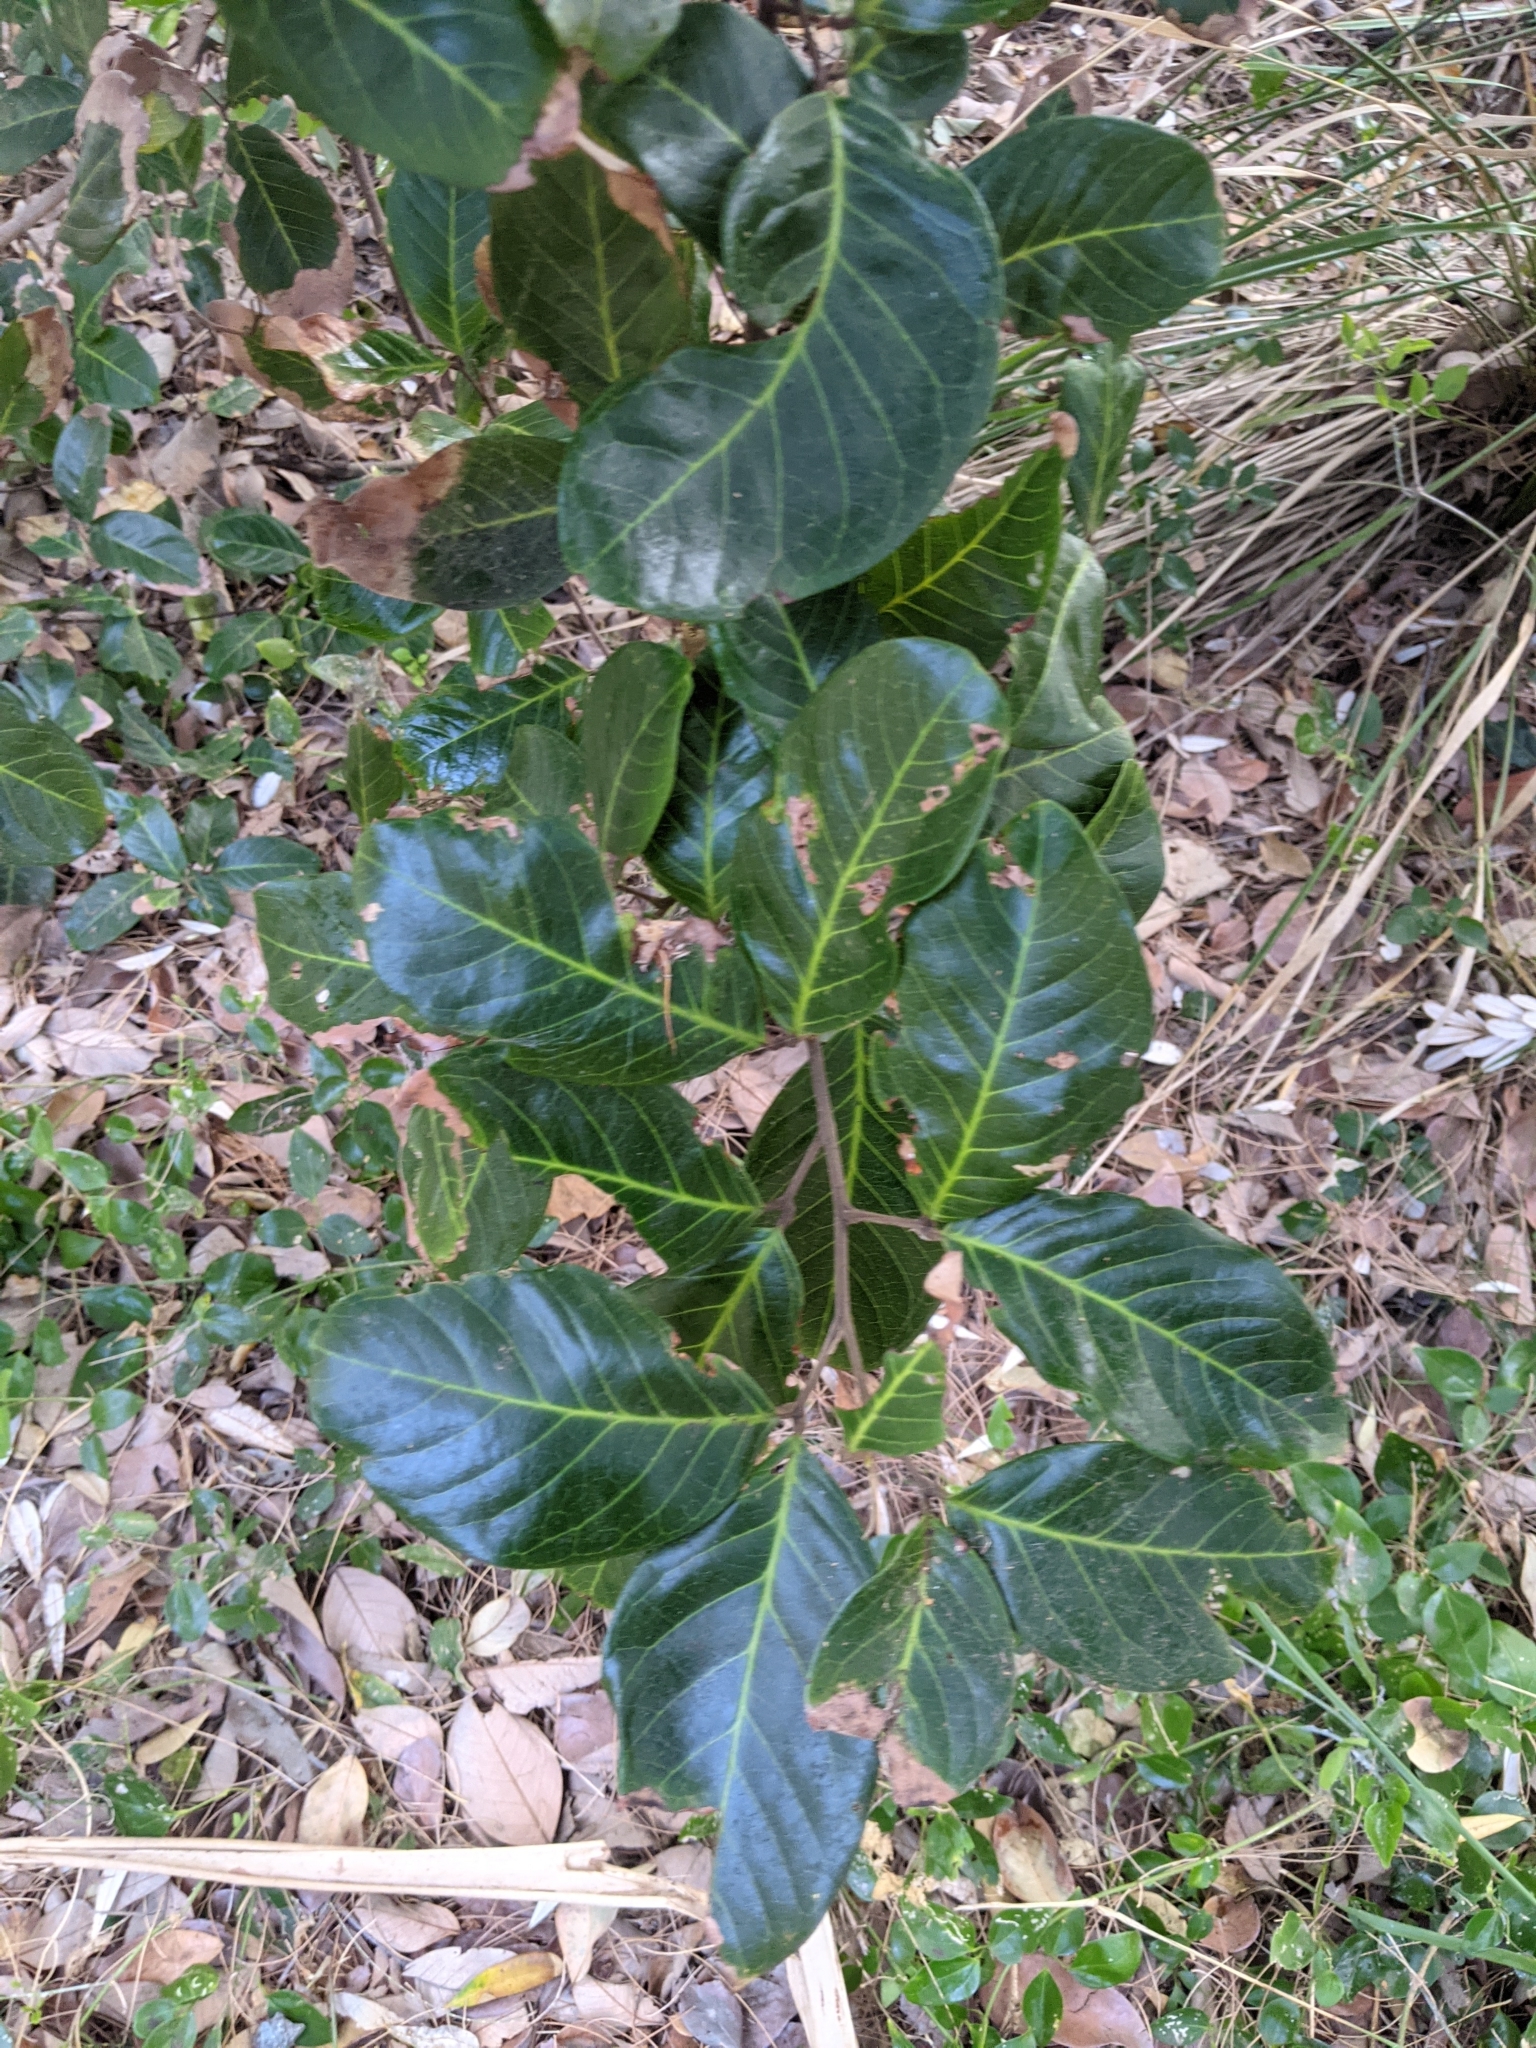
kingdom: Plantae
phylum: Tracheophyta
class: Magnoliopsida
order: Sapindales
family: Sapindaceae
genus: Alectryon
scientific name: Alectryon coriaceus
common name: Beach alectryon
